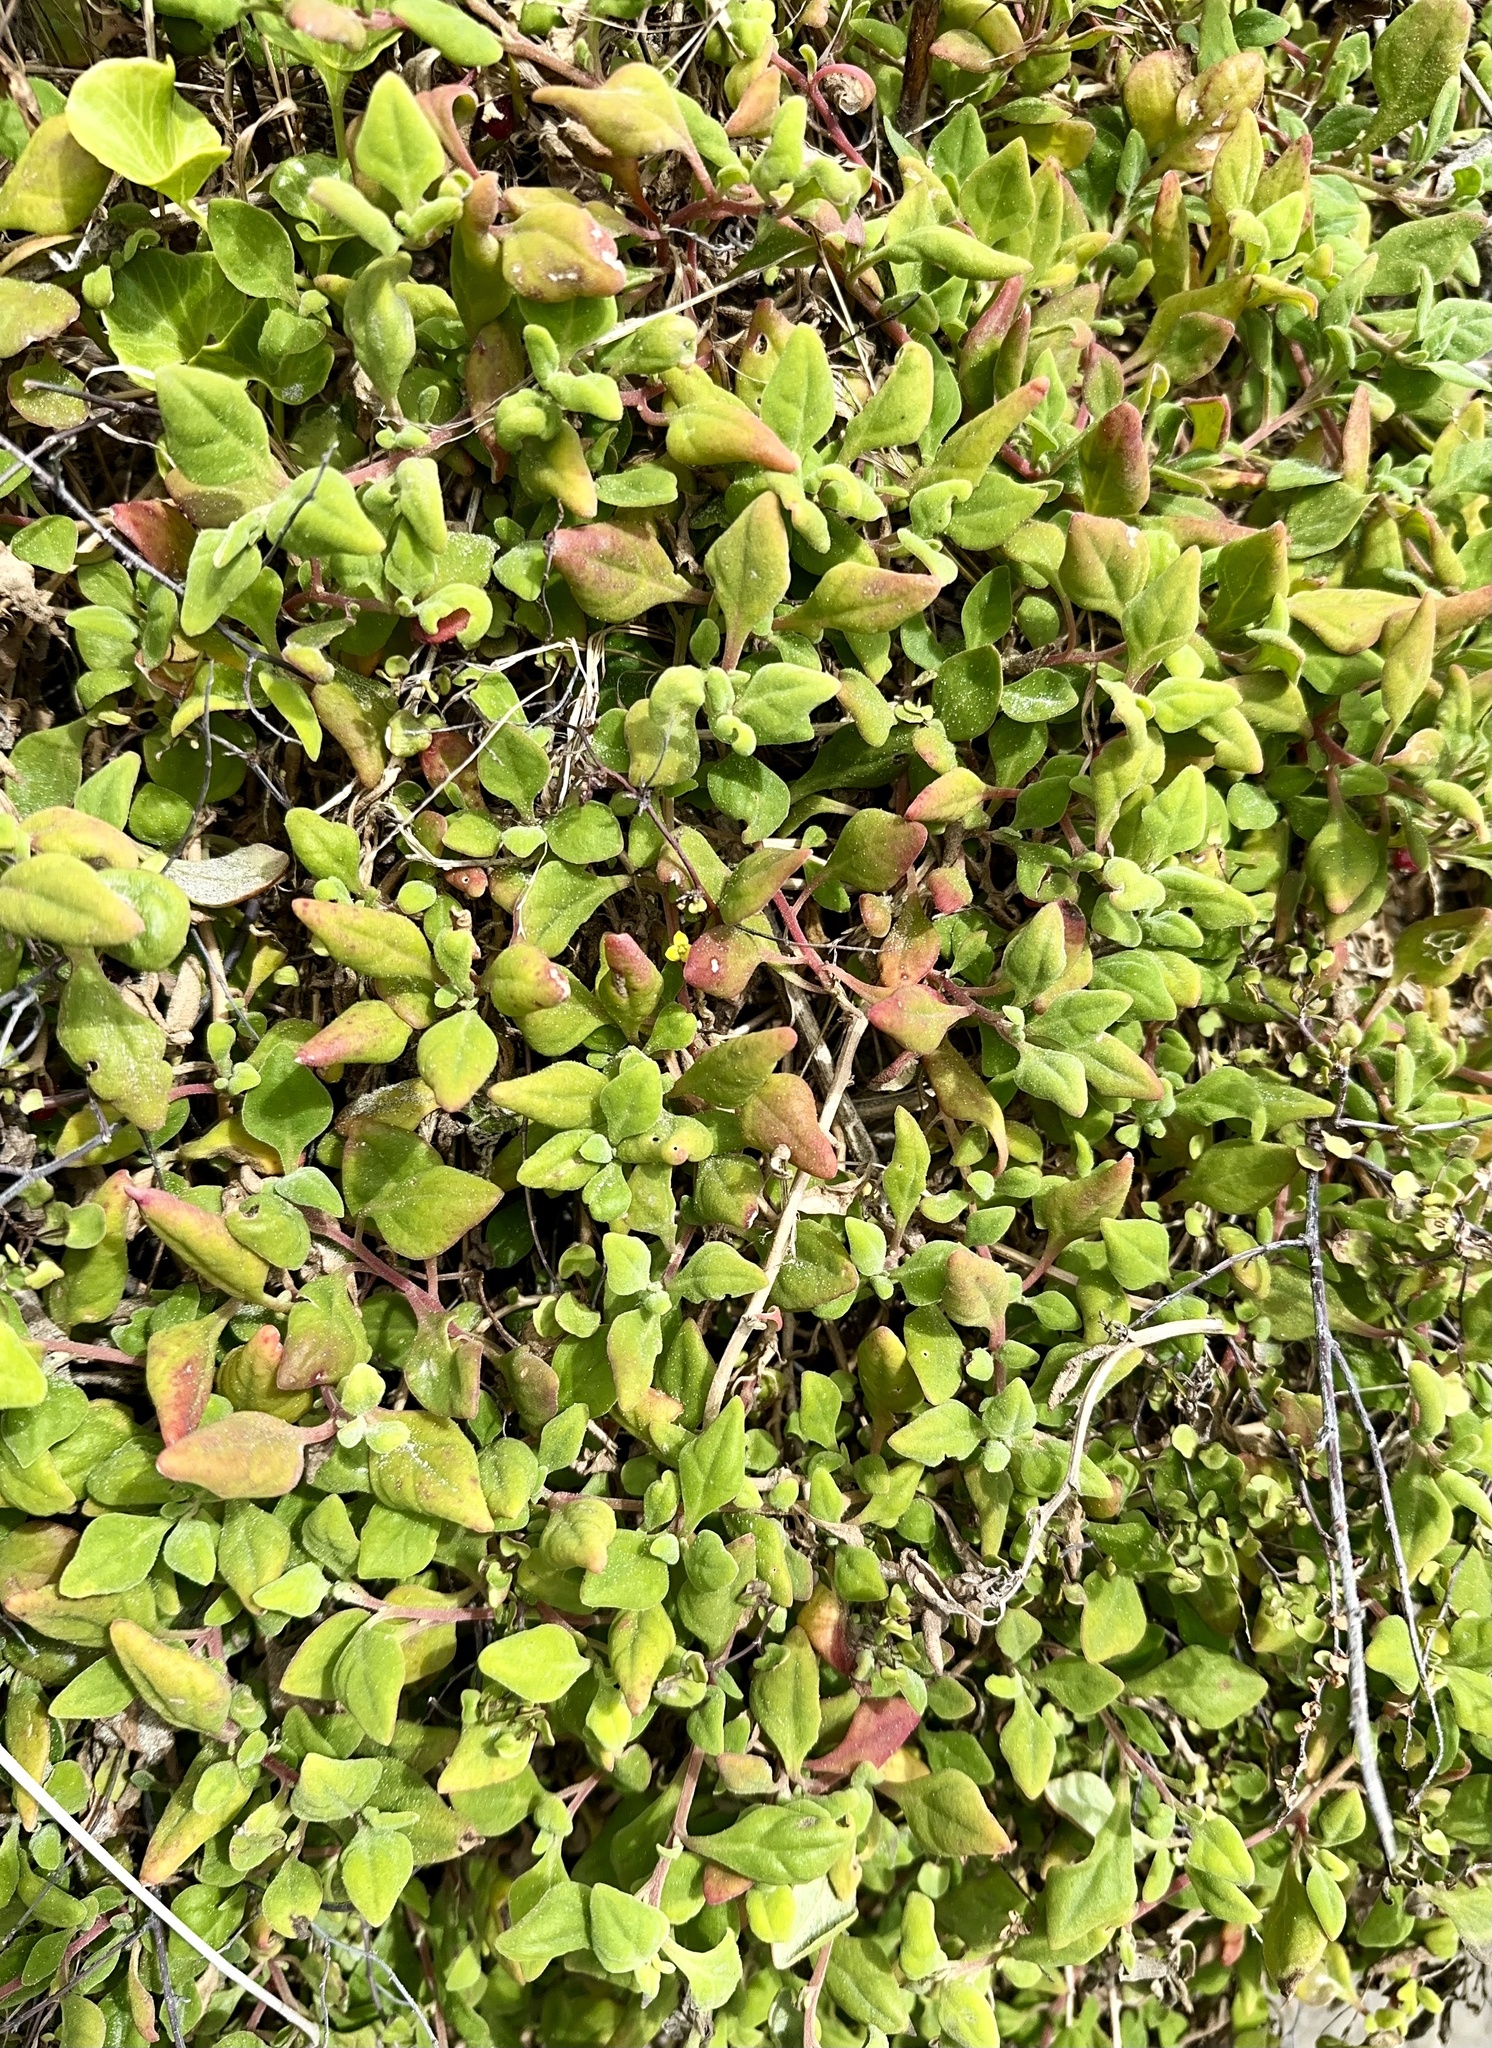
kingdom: Plantae
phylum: Tracheophyta
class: Magnoliopsida
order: Caryophyllales
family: Aizoaceae
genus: Tetragonia
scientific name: Tetragonia implexicoma
